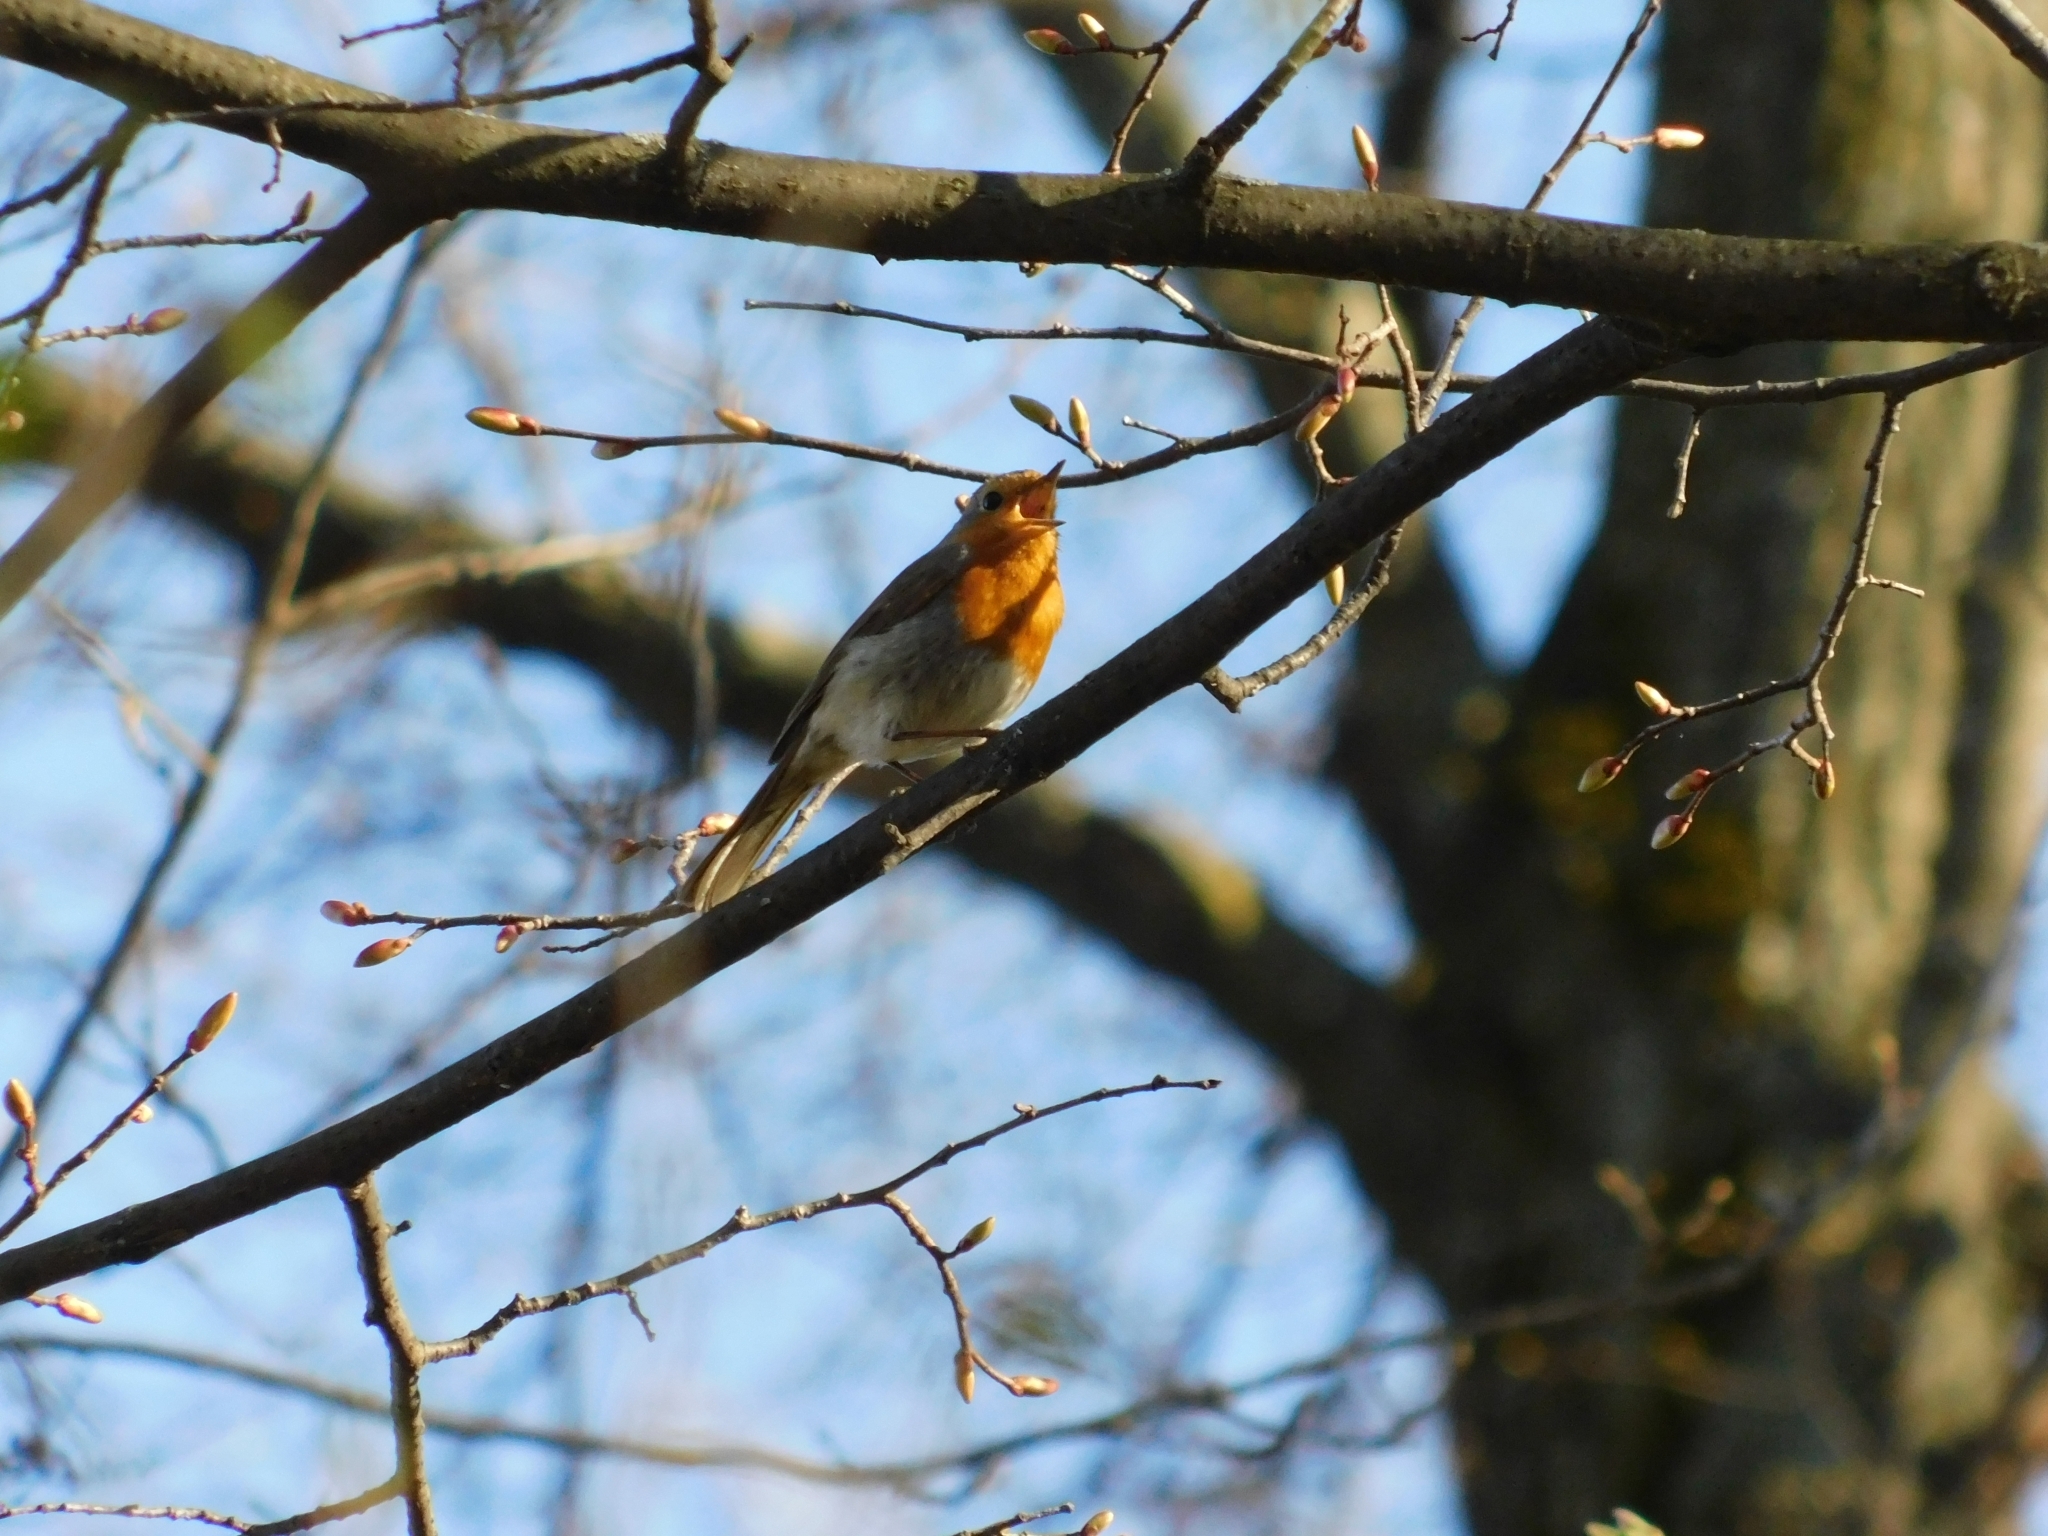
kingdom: Animalia
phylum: Chordata
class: Aves
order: Passeriformes
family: Muscicapidae
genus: Erithacus
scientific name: Erithacus rubecula
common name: European robin
